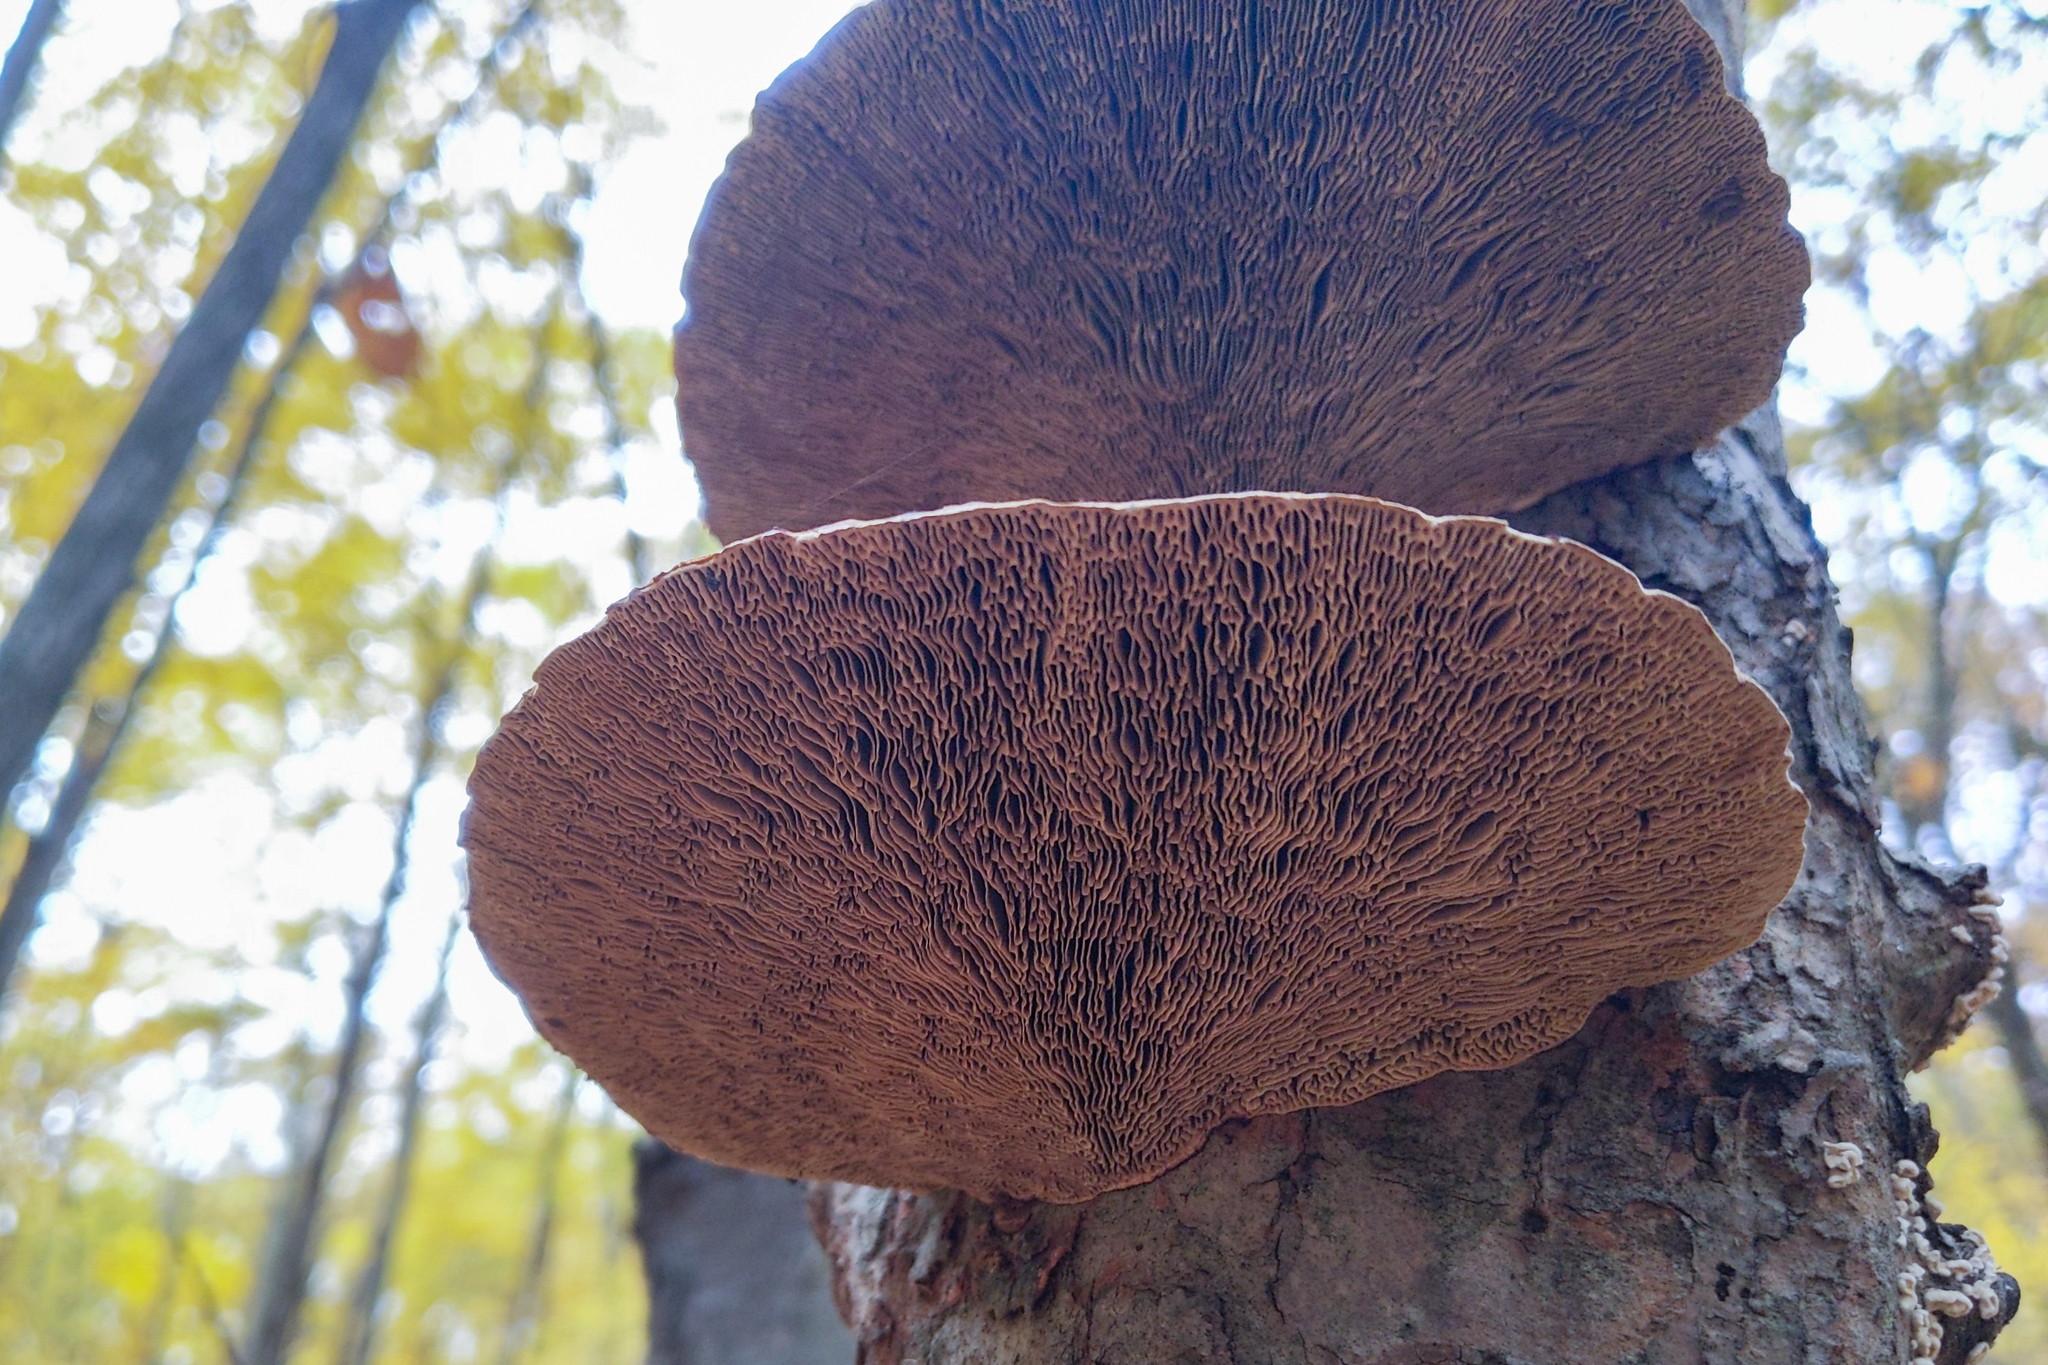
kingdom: Fungi
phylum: Basidiomycota
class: Agaricomycetes
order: Polyporales
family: Polyporaceae
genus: Daedaleopsis
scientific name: Daedaleopsis confragosa
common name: Blushing bracket
